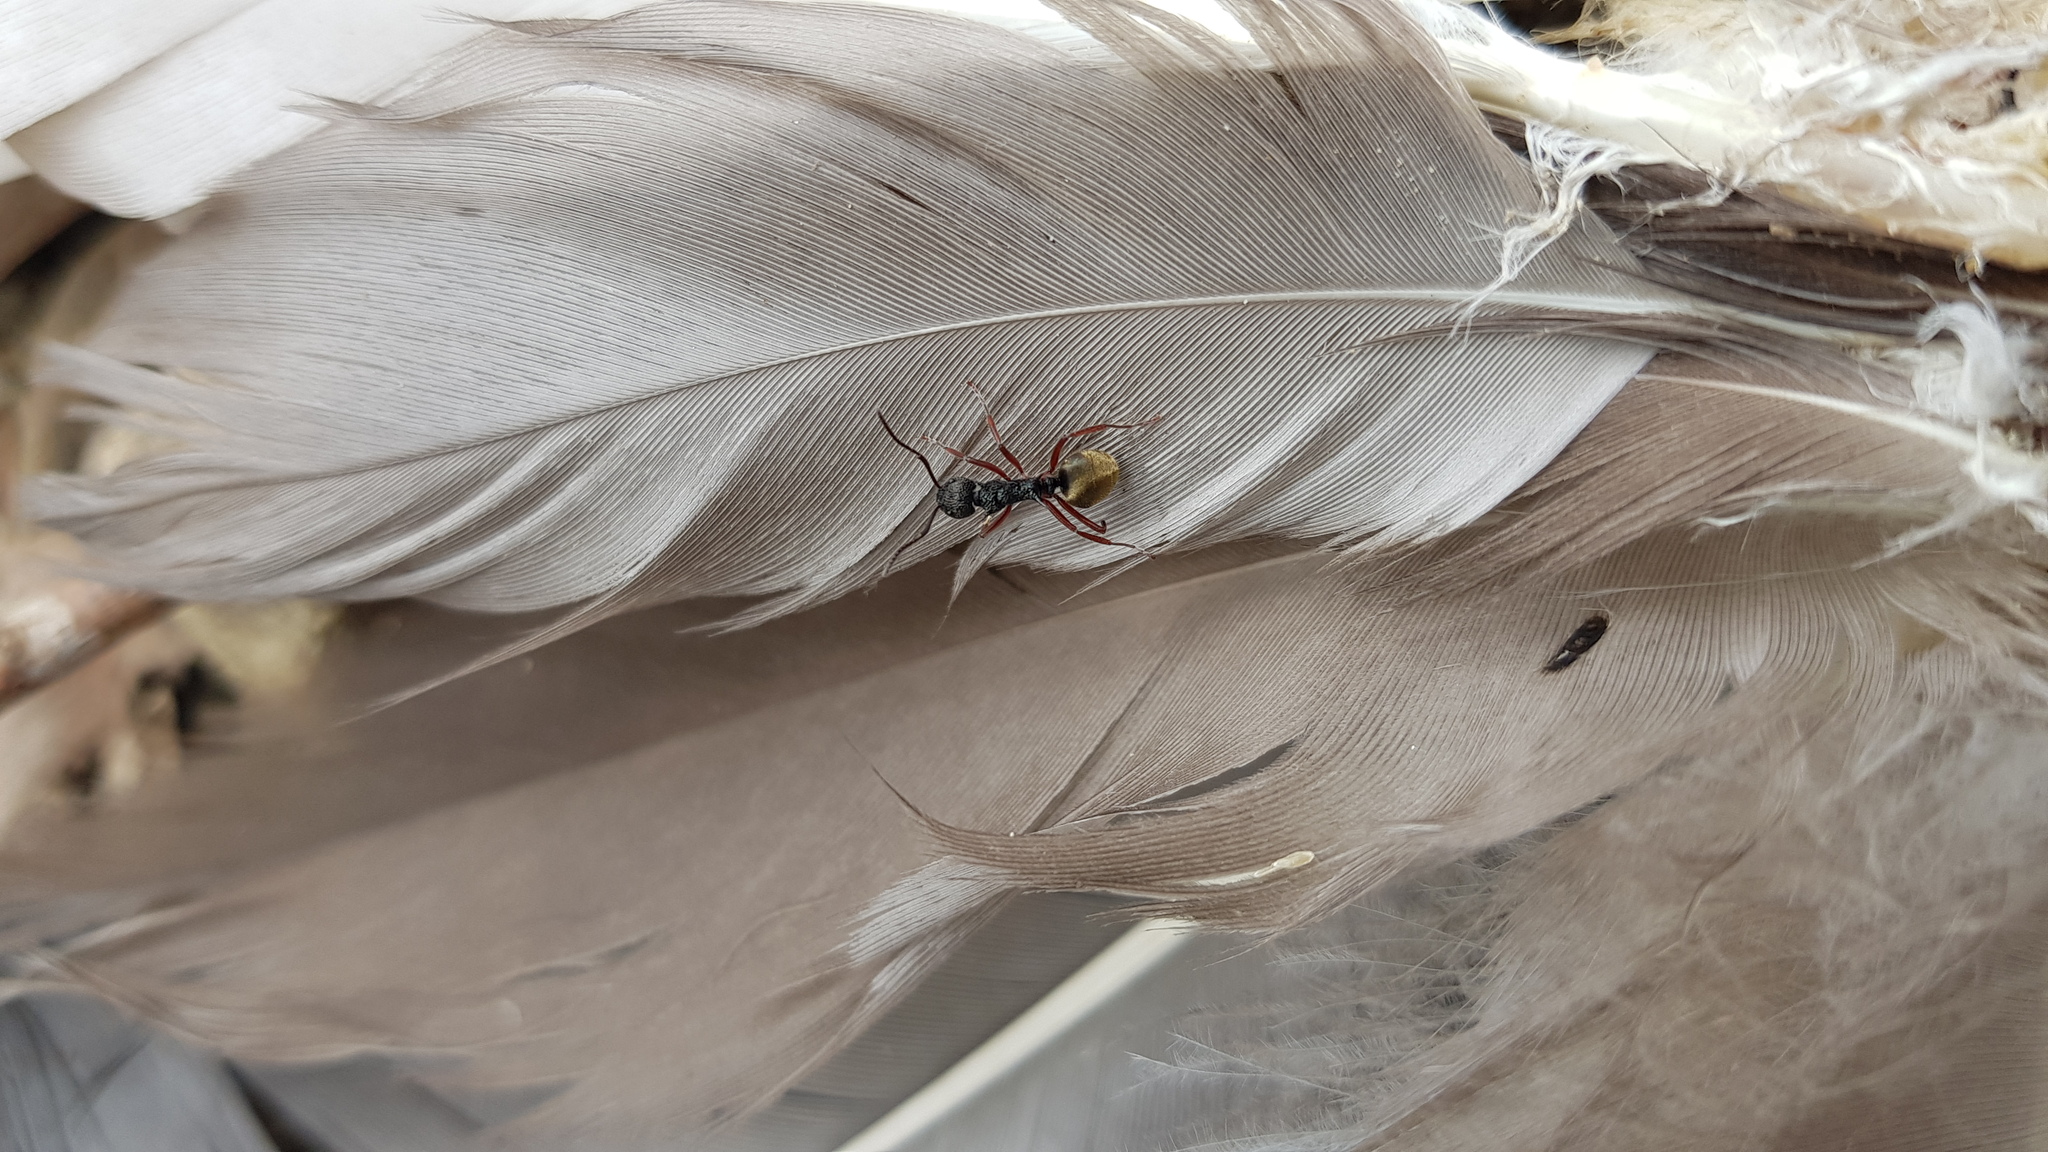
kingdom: Animalia
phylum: Arthropoda
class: Insecta
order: Hymenoptera
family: Formicidae
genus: Dolichoderus
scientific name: Dolichoderus doriae
